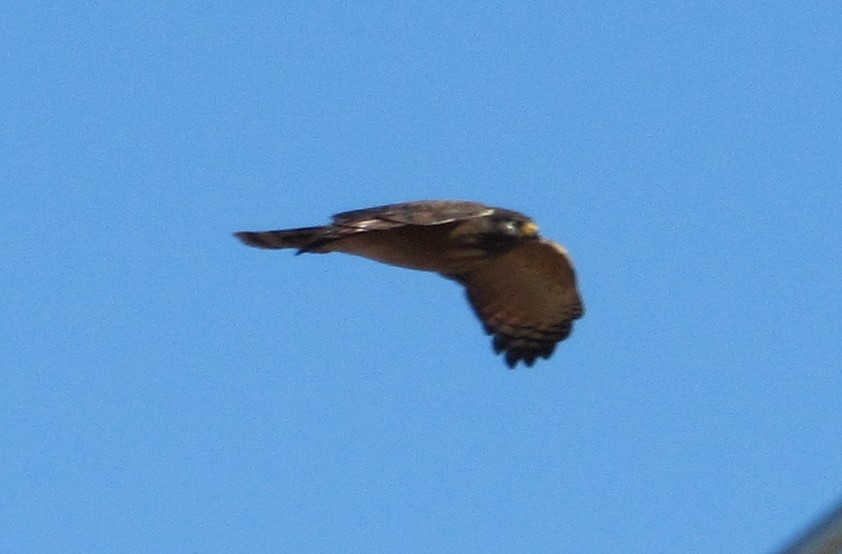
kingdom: Animalia
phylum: Chordata
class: Aves
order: Accipitriformes
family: Accipitridae
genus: Rupornis
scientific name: Rupornis magnirostris
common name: Roadside hawk
